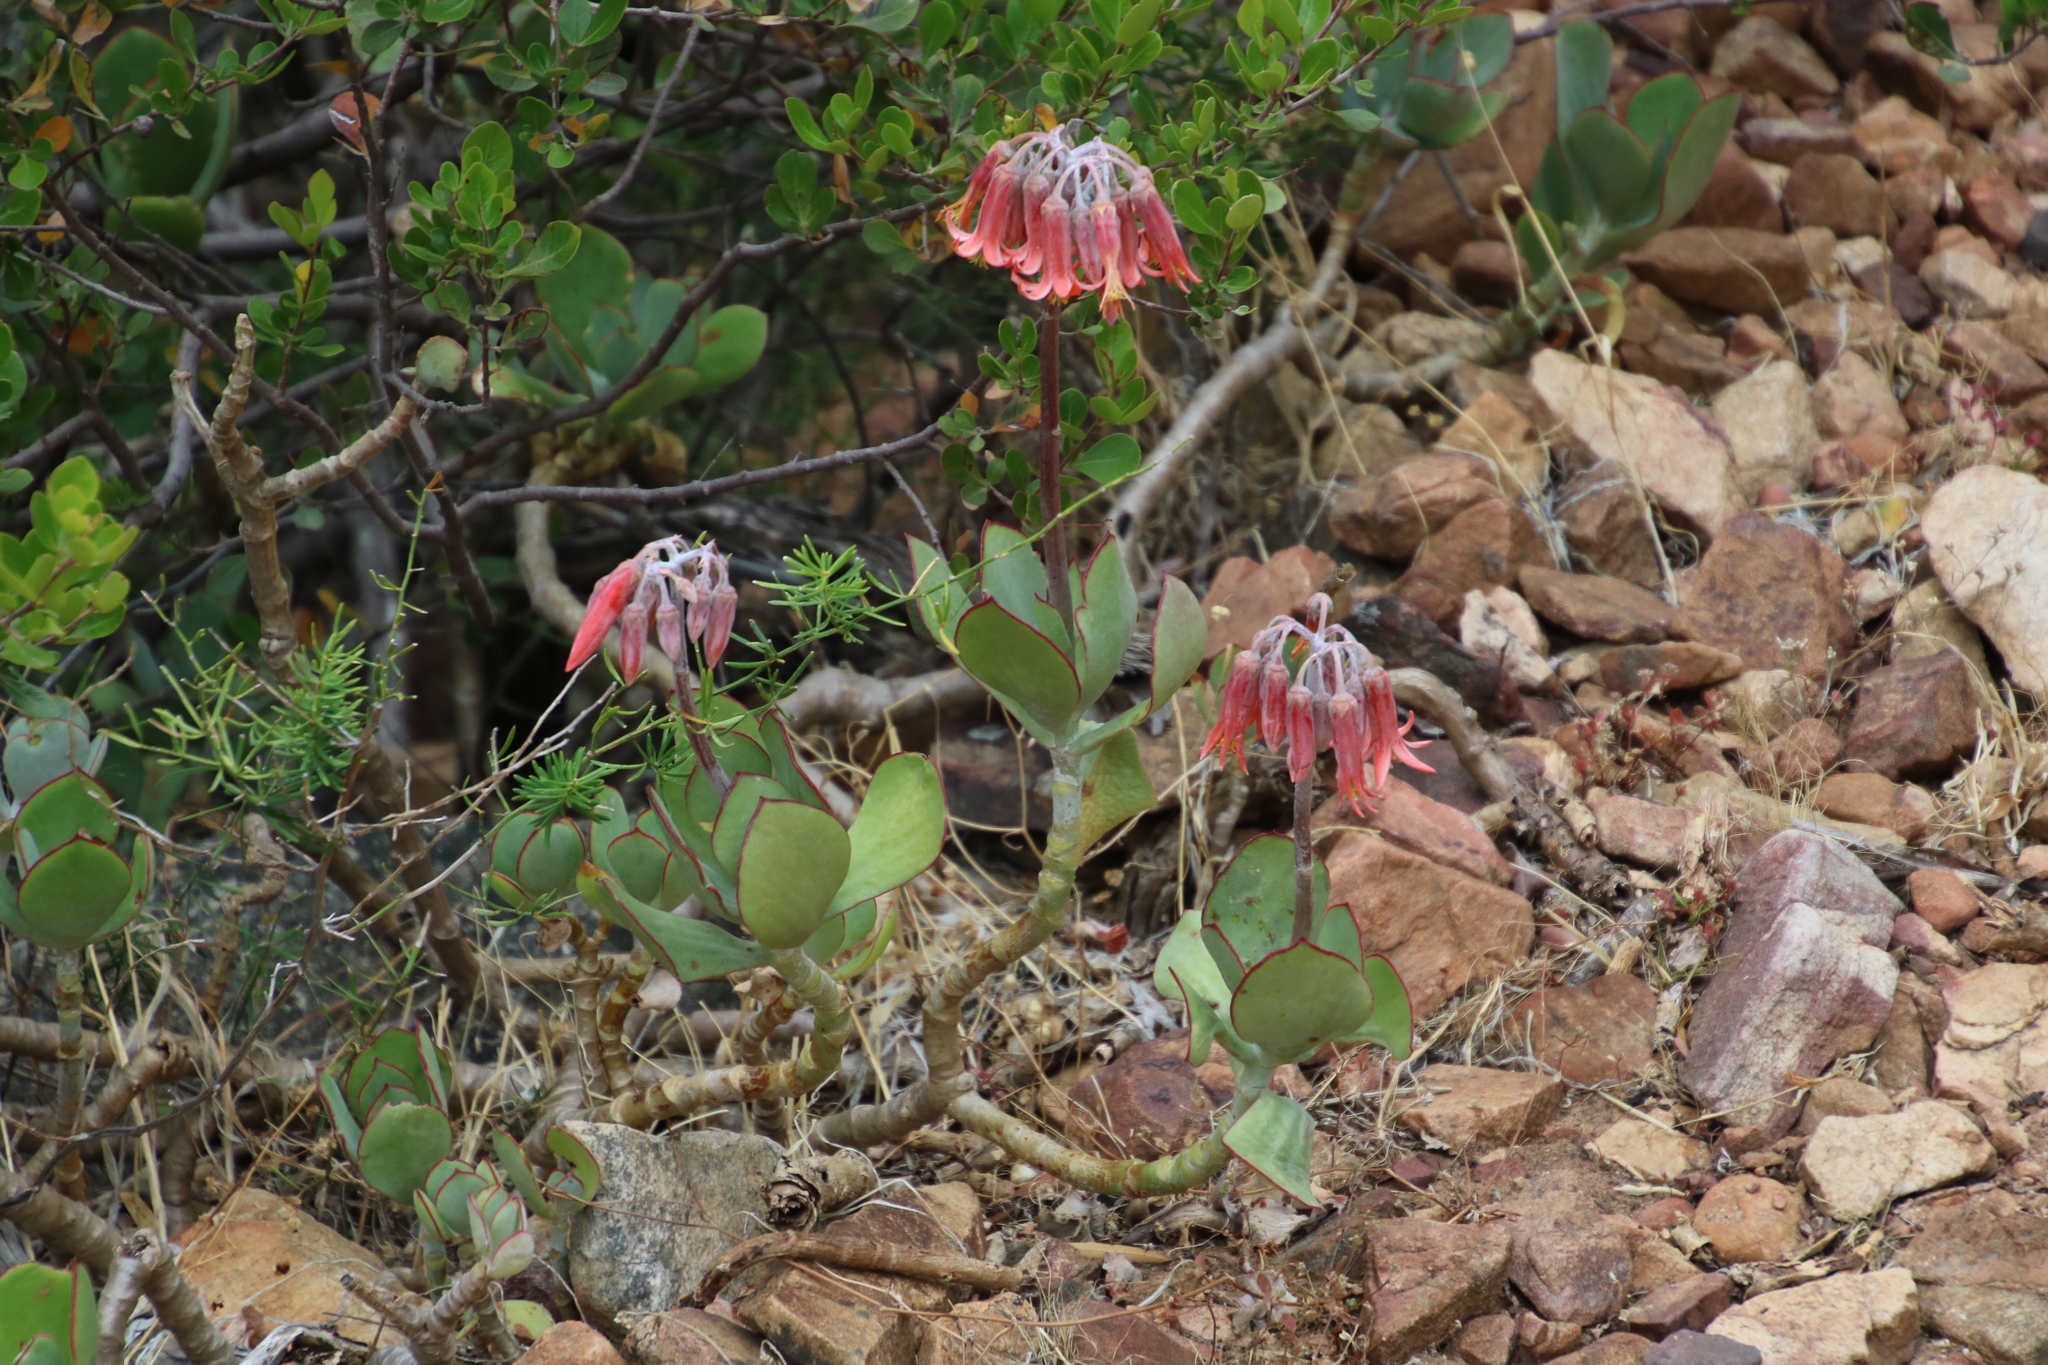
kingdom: Plantae
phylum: Tracheophyta
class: Magnoliopsida
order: Saxifragales
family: Crassulaceae
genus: Cotyledon
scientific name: Cotyledon orbiculata
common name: Pig's ear
